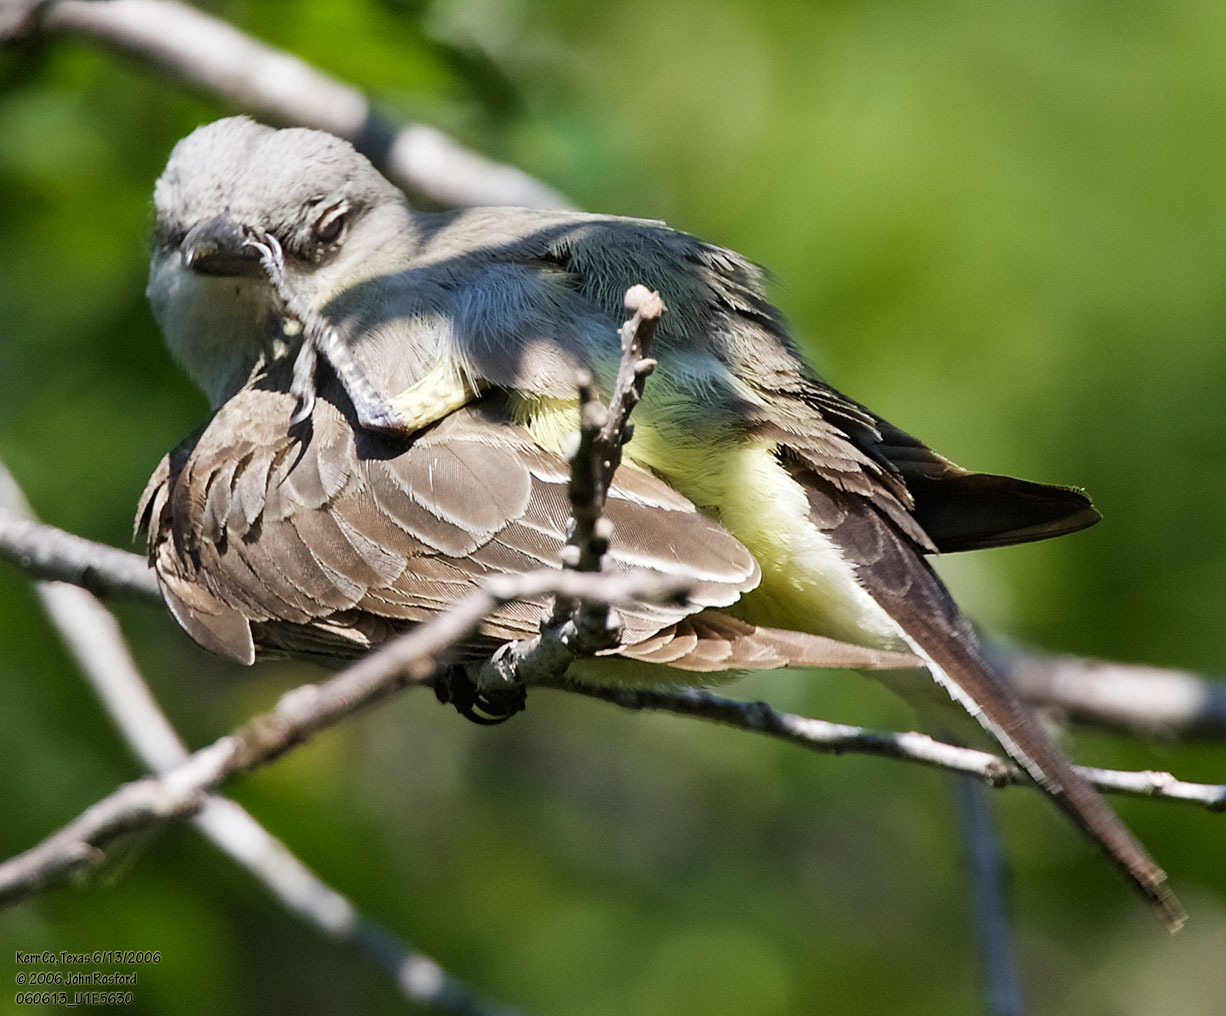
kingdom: Animalia
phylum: Chordata
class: Aves
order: Passeriformes
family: Tyrannidae
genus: Tyrannus
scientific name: Tyrannus verticalis
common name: Western kingbird
